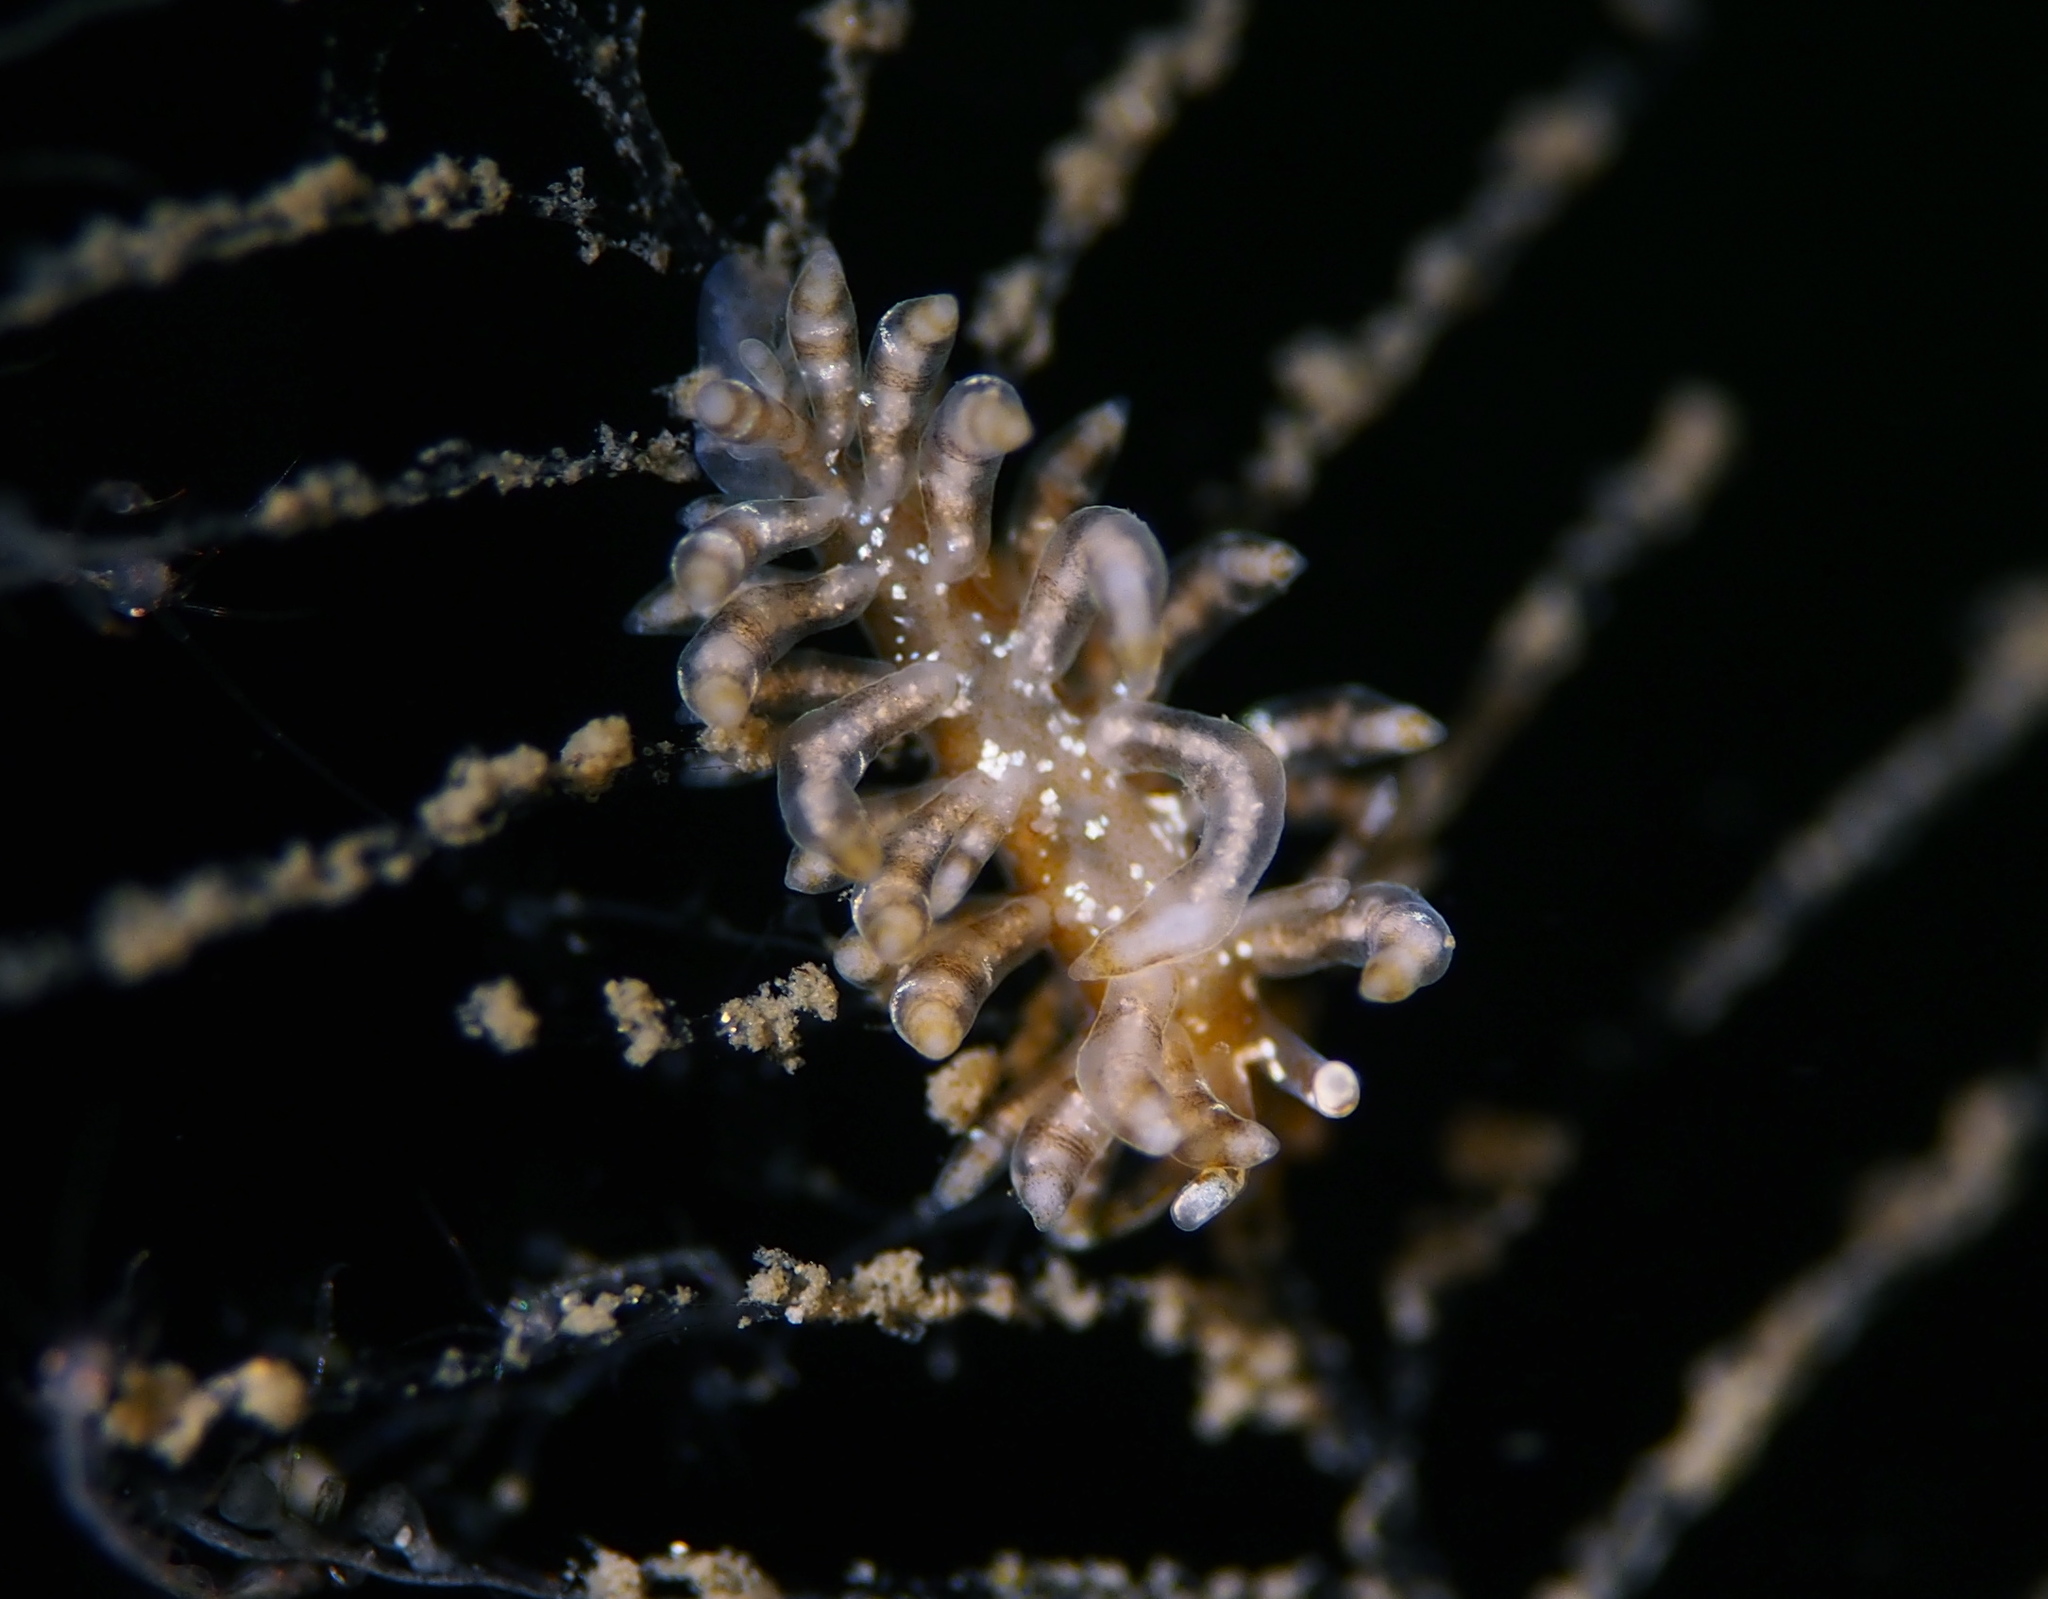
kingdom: Animalia
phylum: Mollusca
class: Gastropoda
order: Nudibranchia
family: Eubranchidae
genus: Eubranchus
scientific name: Eubranchus vittatus
